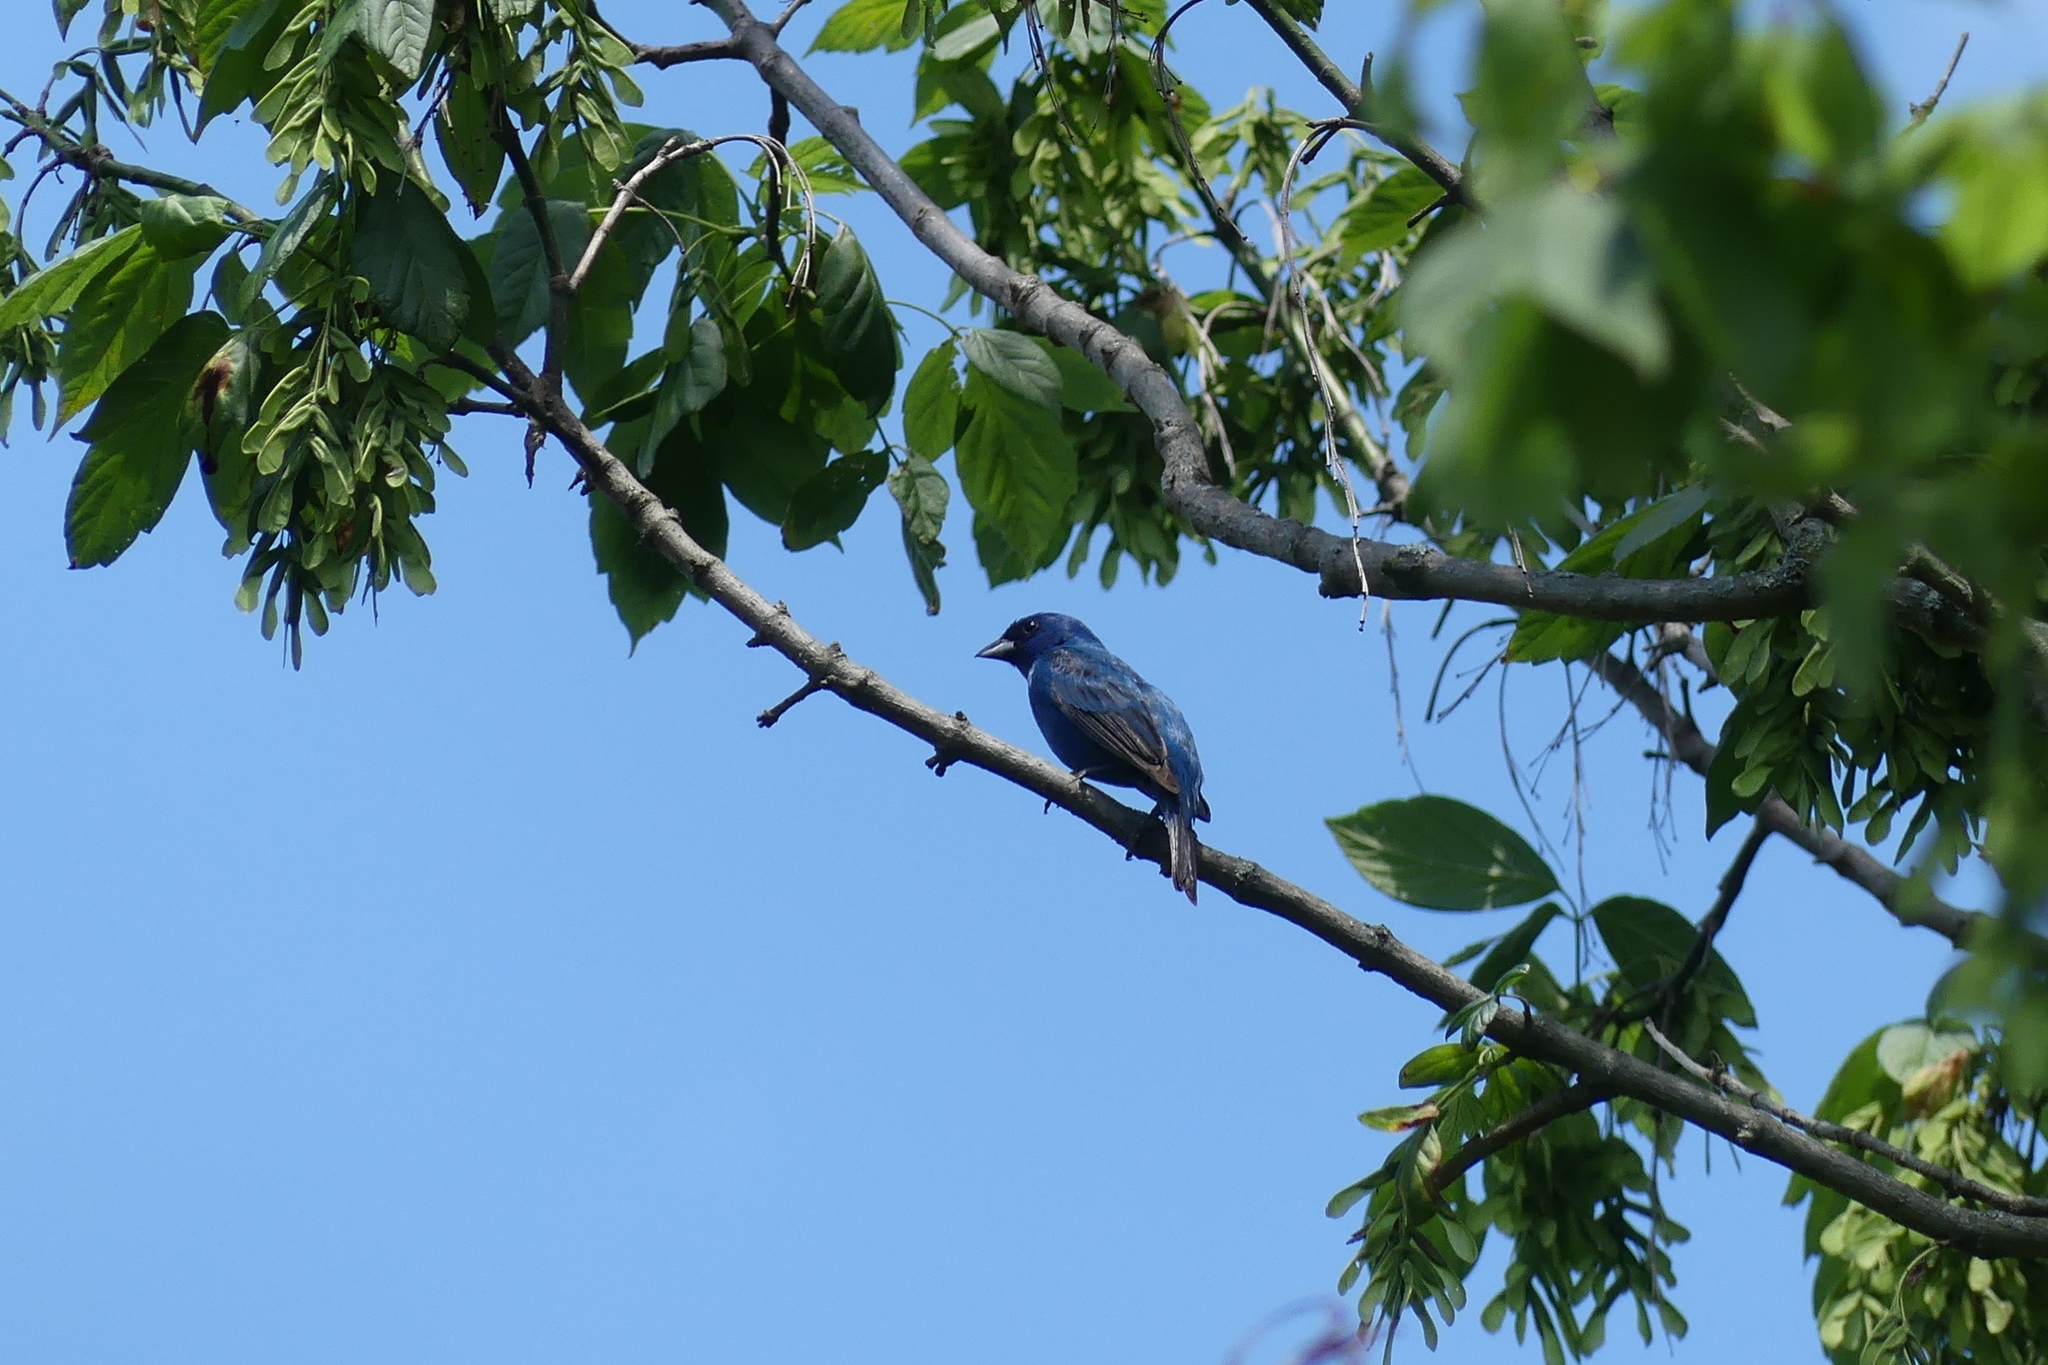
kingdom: Animalia
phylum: Chordata
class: Aves
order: Passeriformes
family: Cardinalidae
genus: Passerina
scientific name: Passerina cyanea
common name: Indigo bunting
